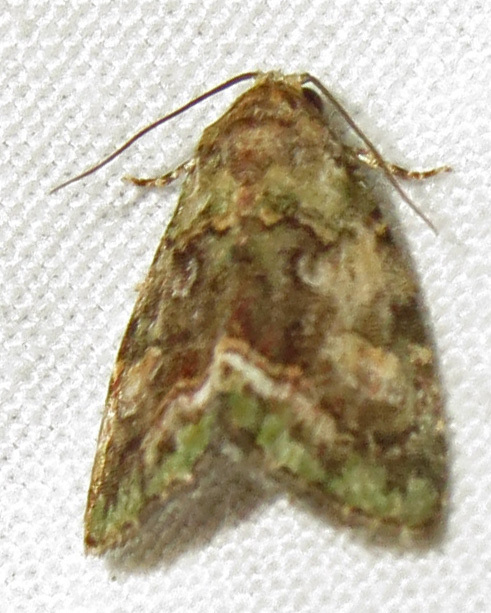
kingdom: Animalia
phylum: Arthropoda
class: Insecta
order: Lepidoptera
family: Noctuidae
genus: Lithacodia
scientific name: Lithacodia musta
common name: Small mossy glyph
